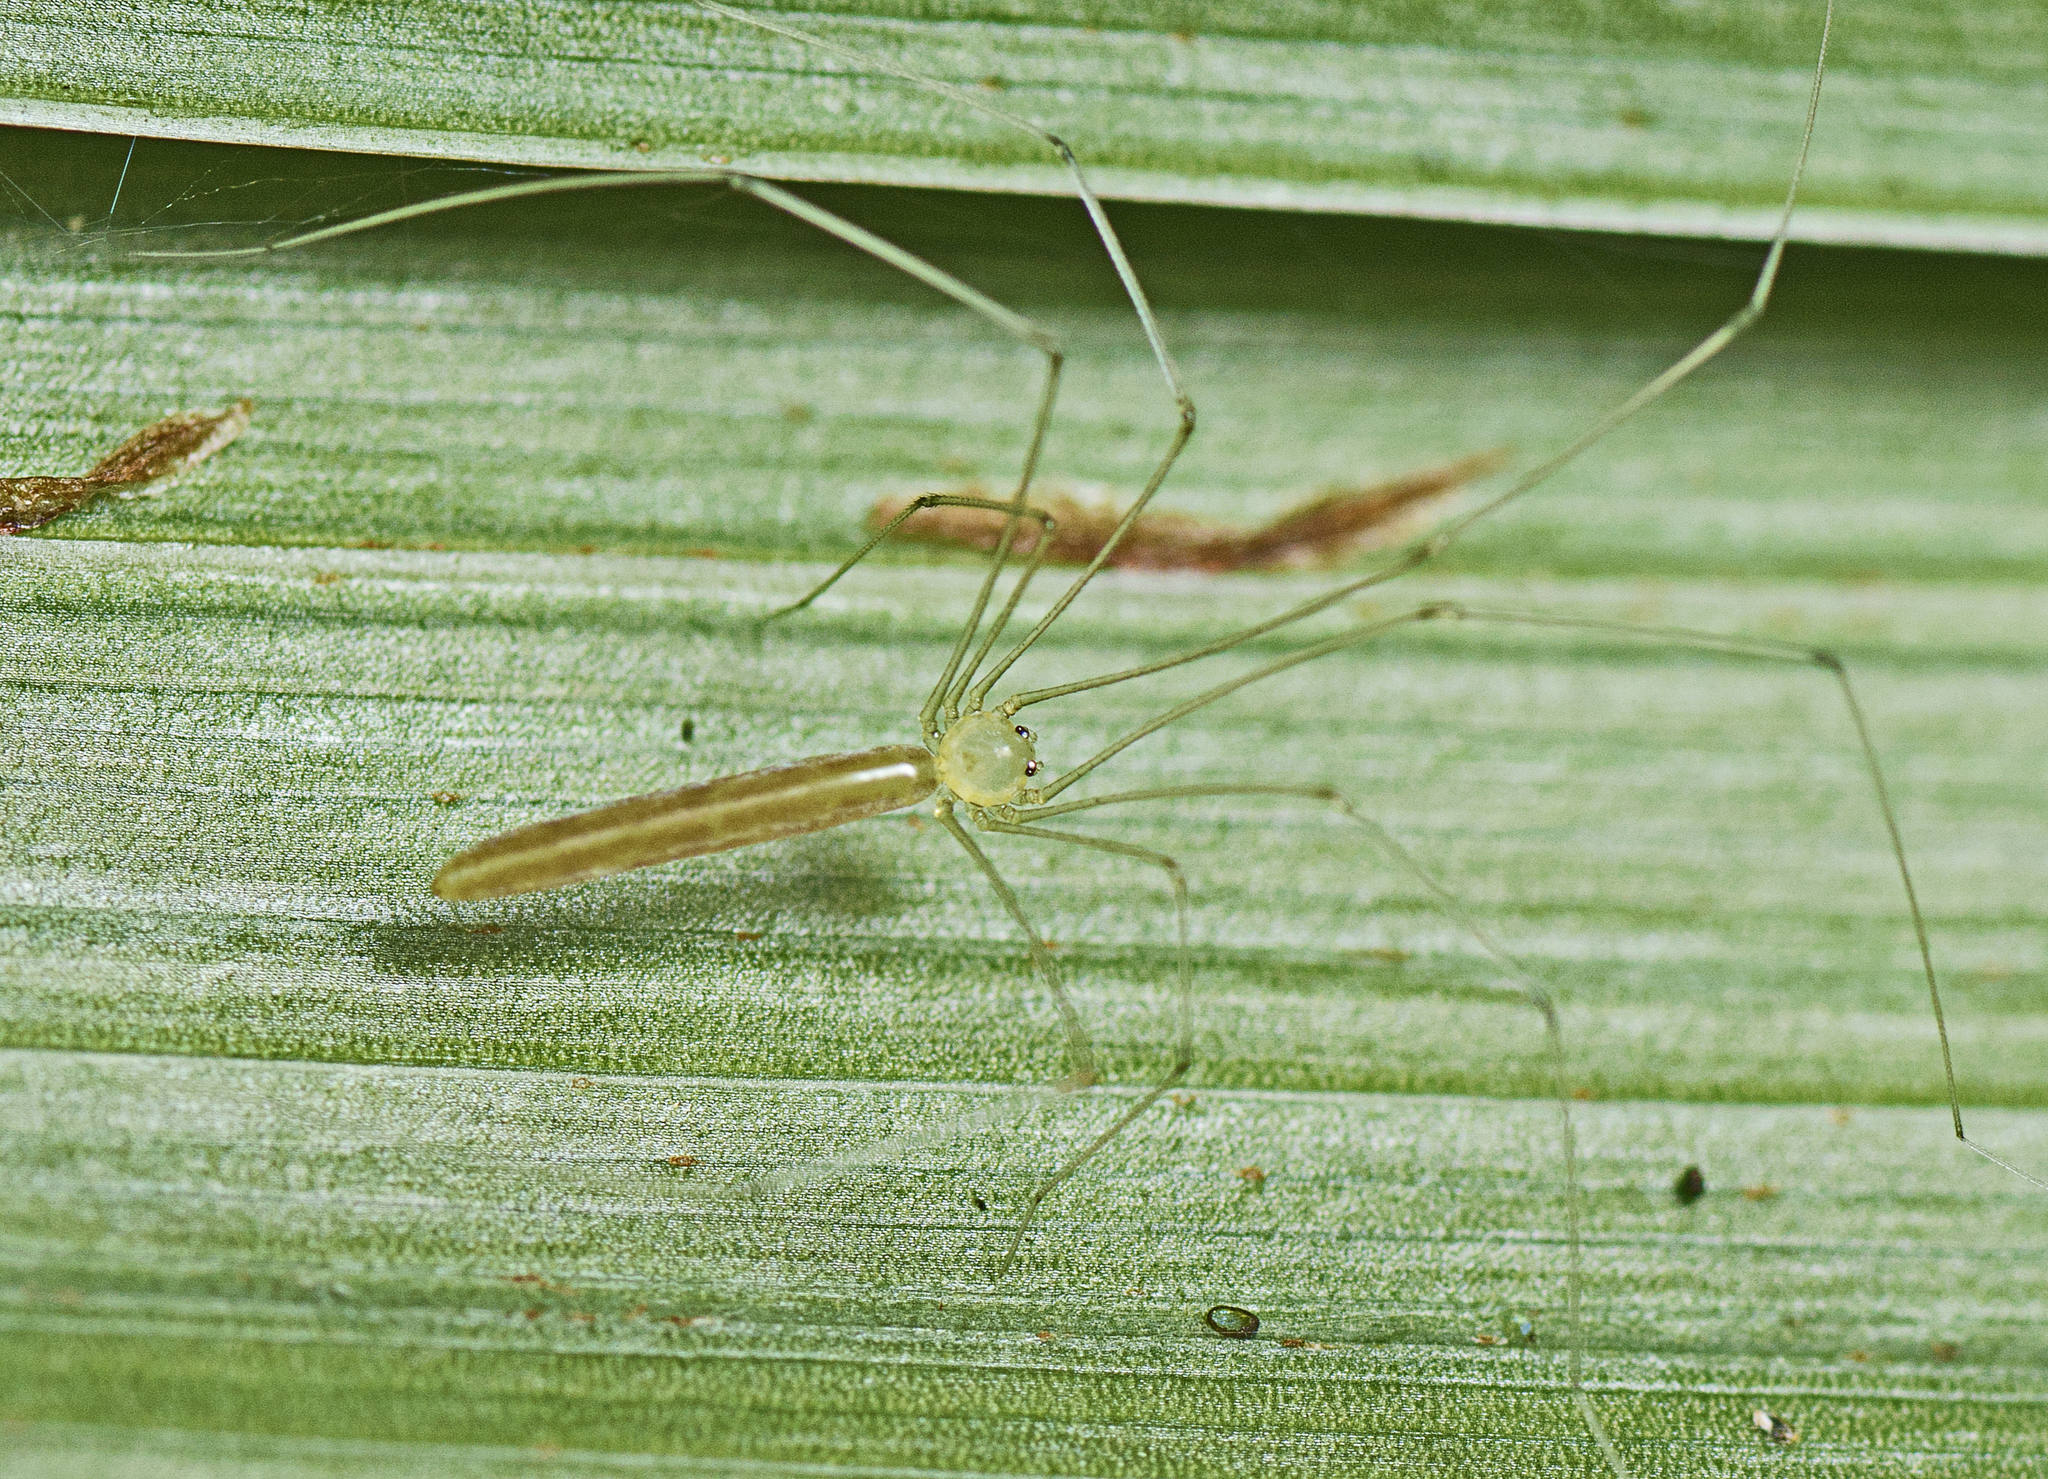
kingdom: Animalia
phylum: Arthropoda
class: Arachnida
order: Araneae
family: Pholcidae
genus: Micromerys
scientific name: Micromerys raveni
